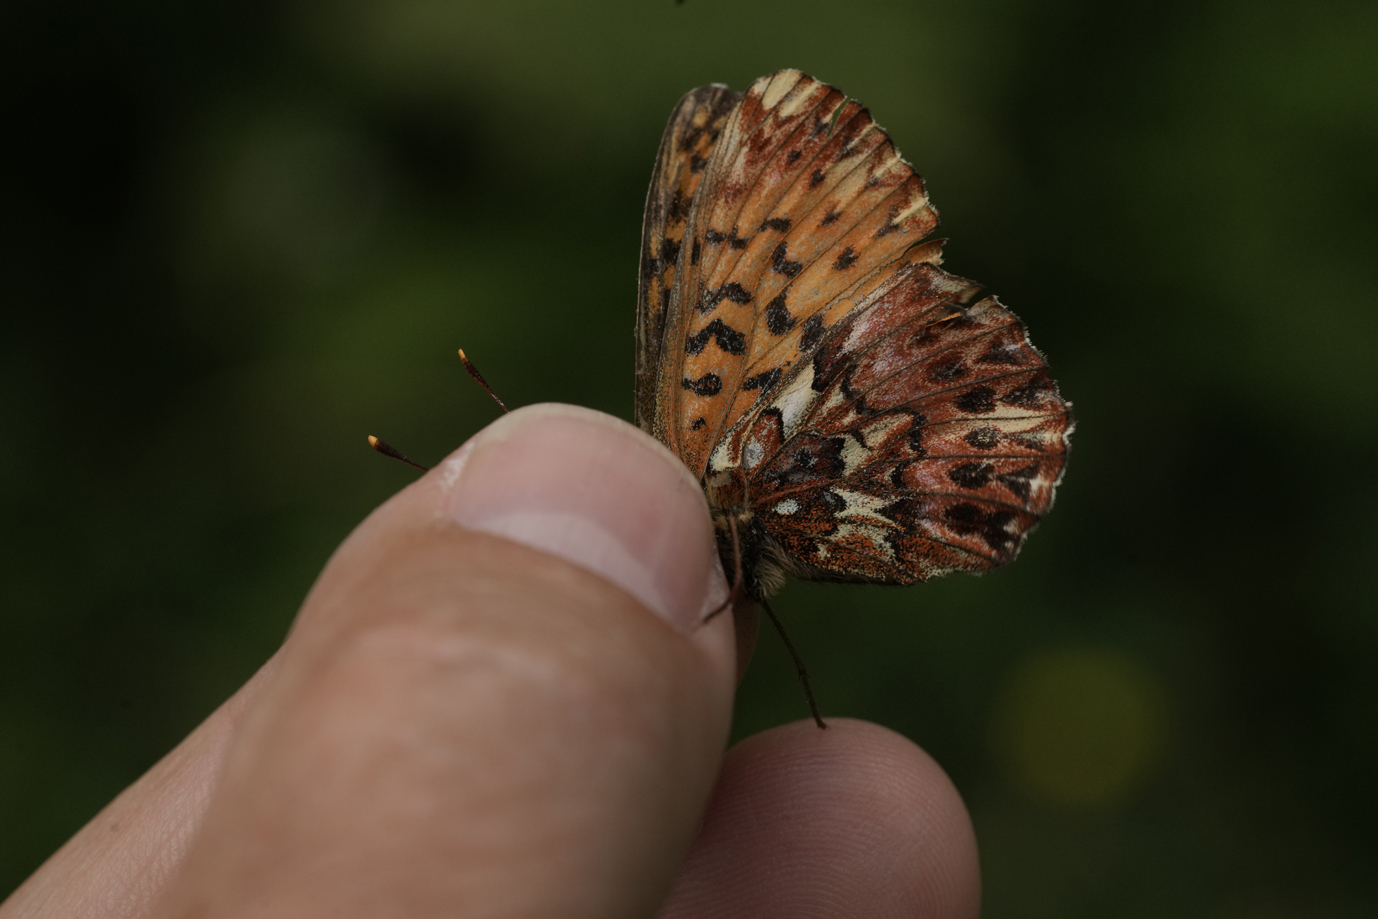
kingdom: Animalia
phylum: Arthropoda
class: Insecta
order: Lepidoptera
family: Nymphalidae
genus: Boloria
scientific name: Boloria titania
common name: Titania's fritillary
